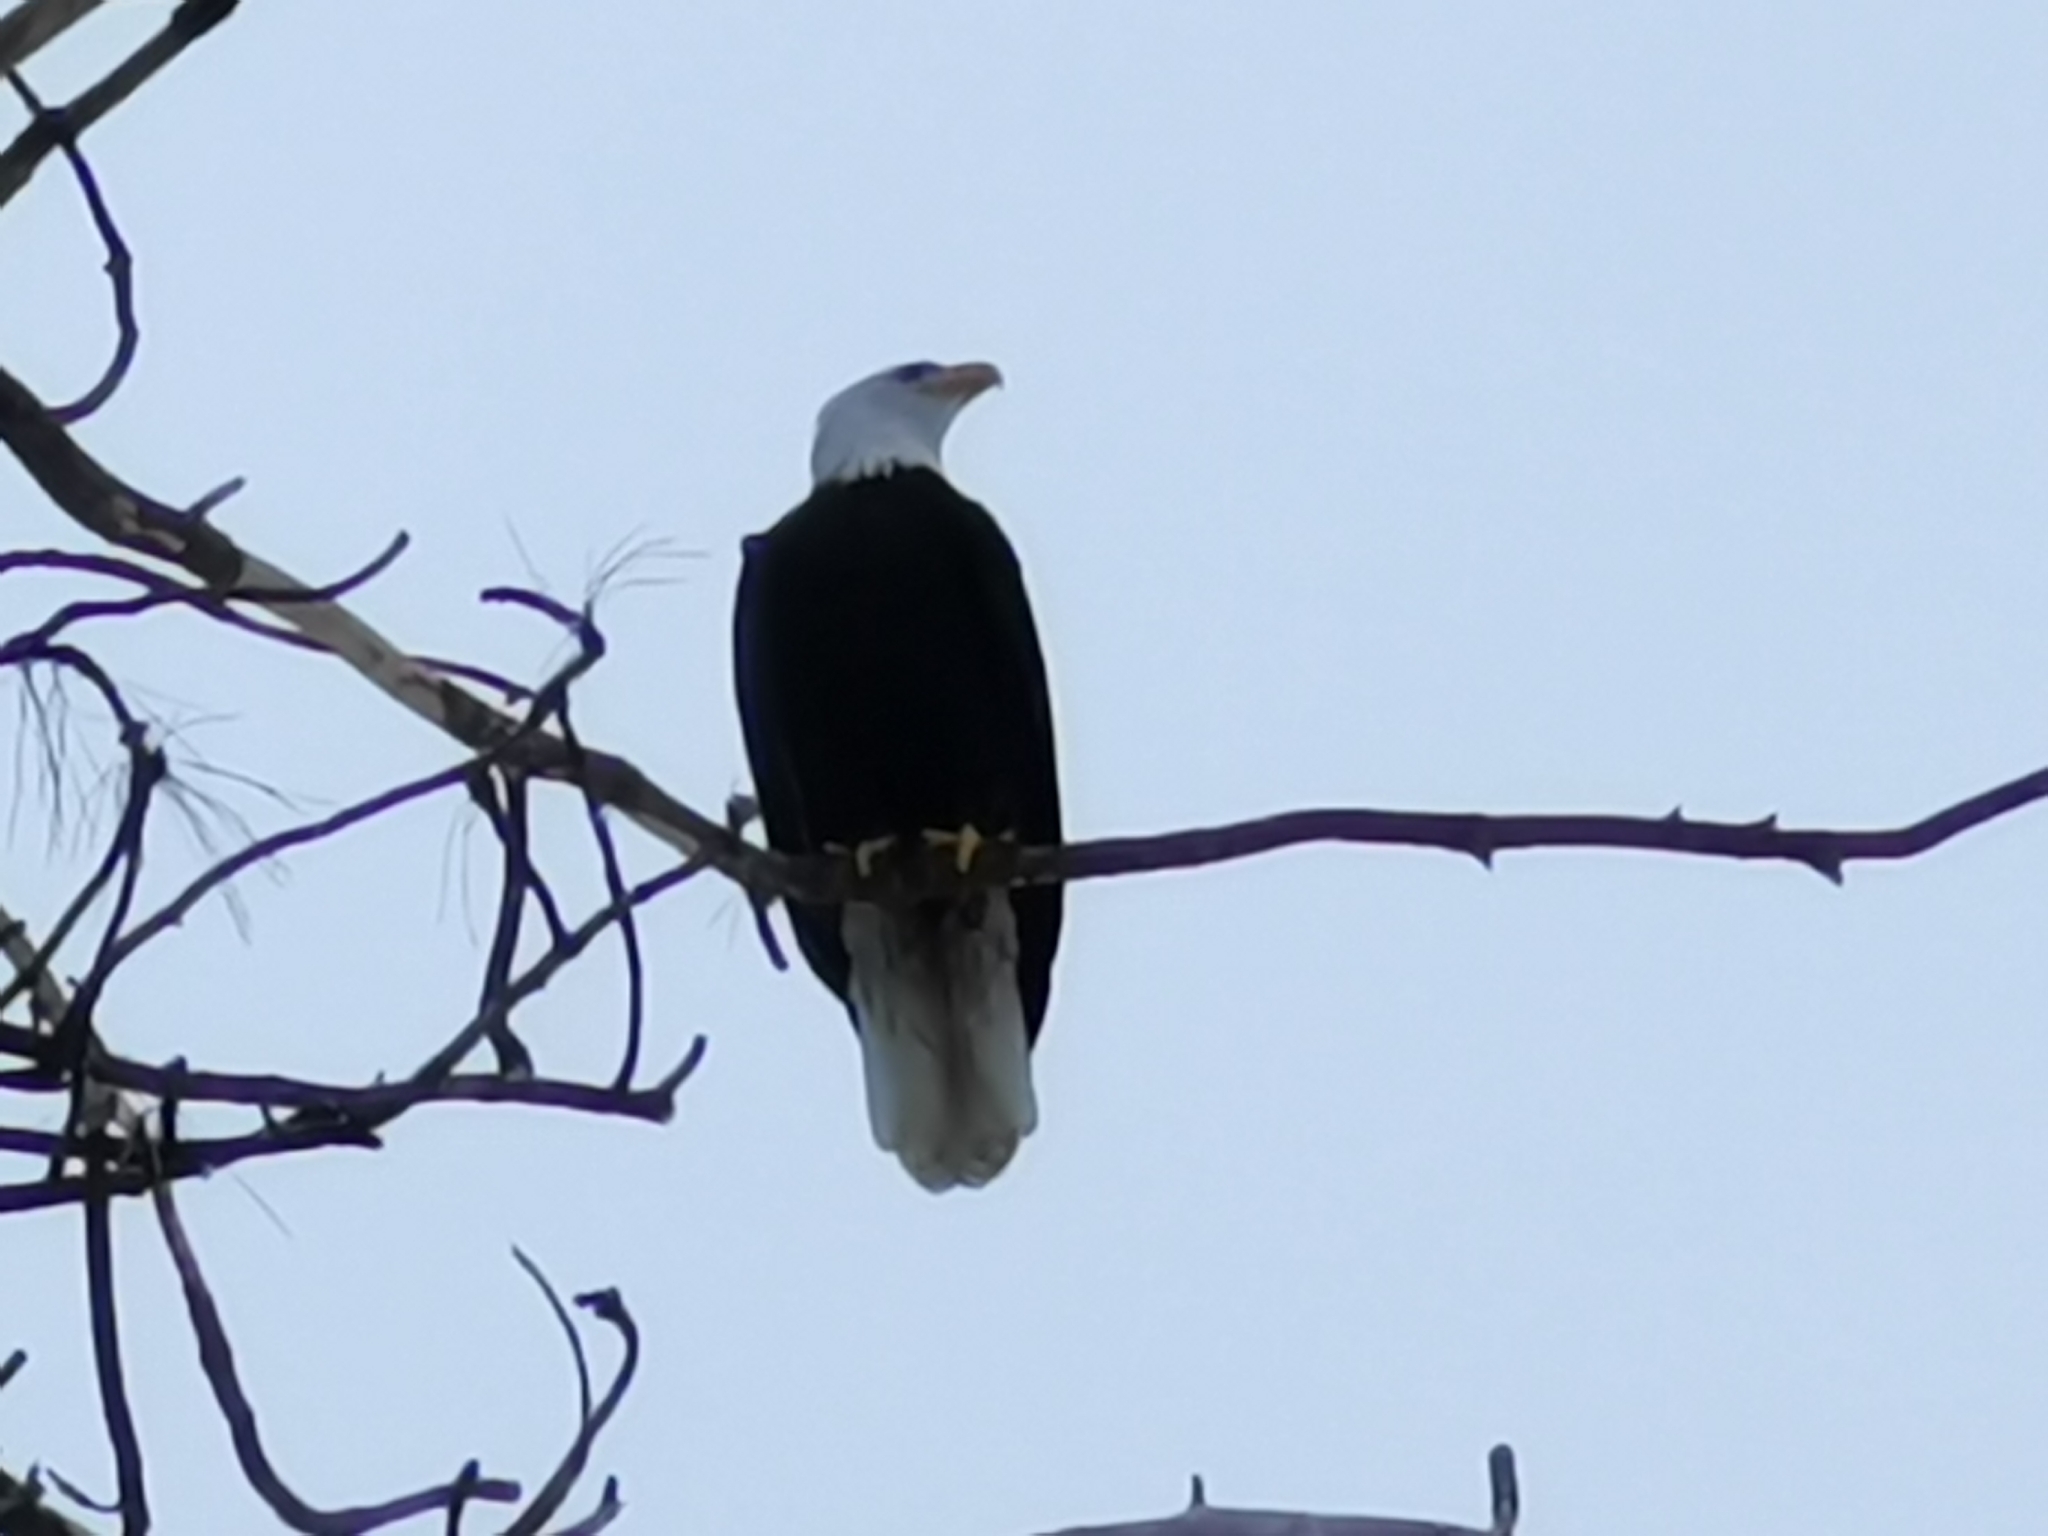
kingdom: Animalia
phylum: Chordata
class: Aves
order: Accipitriformes
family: Accipitridae
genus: Haliaeetus
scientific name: Haliaeetus leucocephalus
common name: Bald eagle
